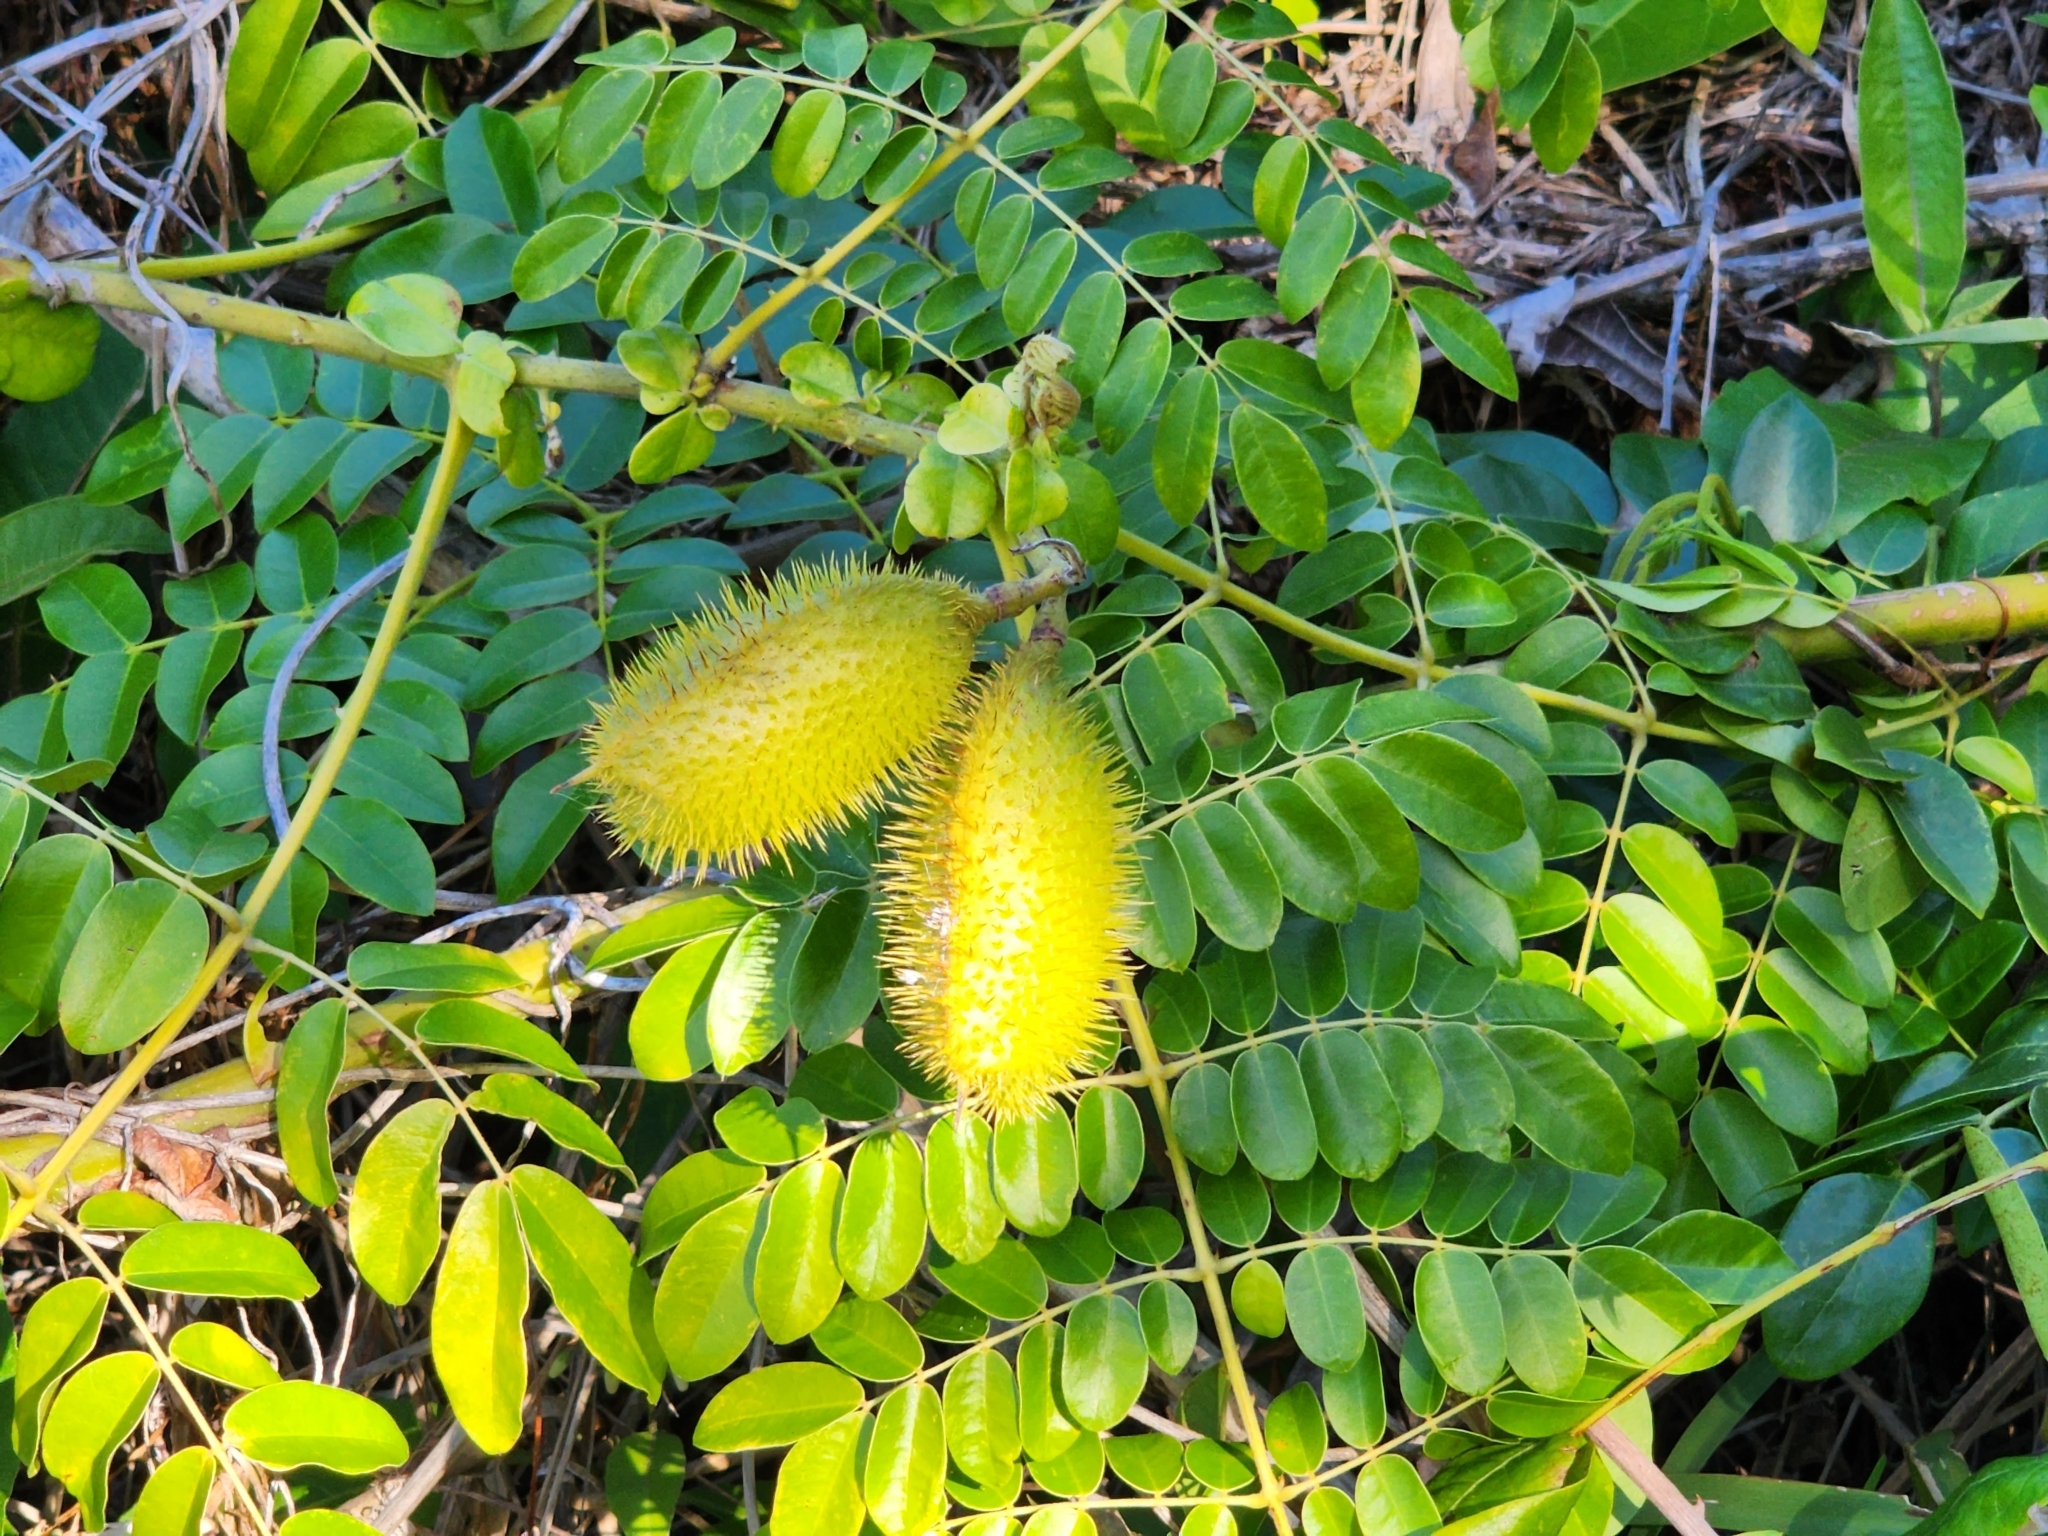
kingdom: Plantae
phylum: Tracheophyta
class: Magnoliopsida
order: Fabales
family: Fabaceae
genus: Guilandina
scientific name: Guilandina bonduc
